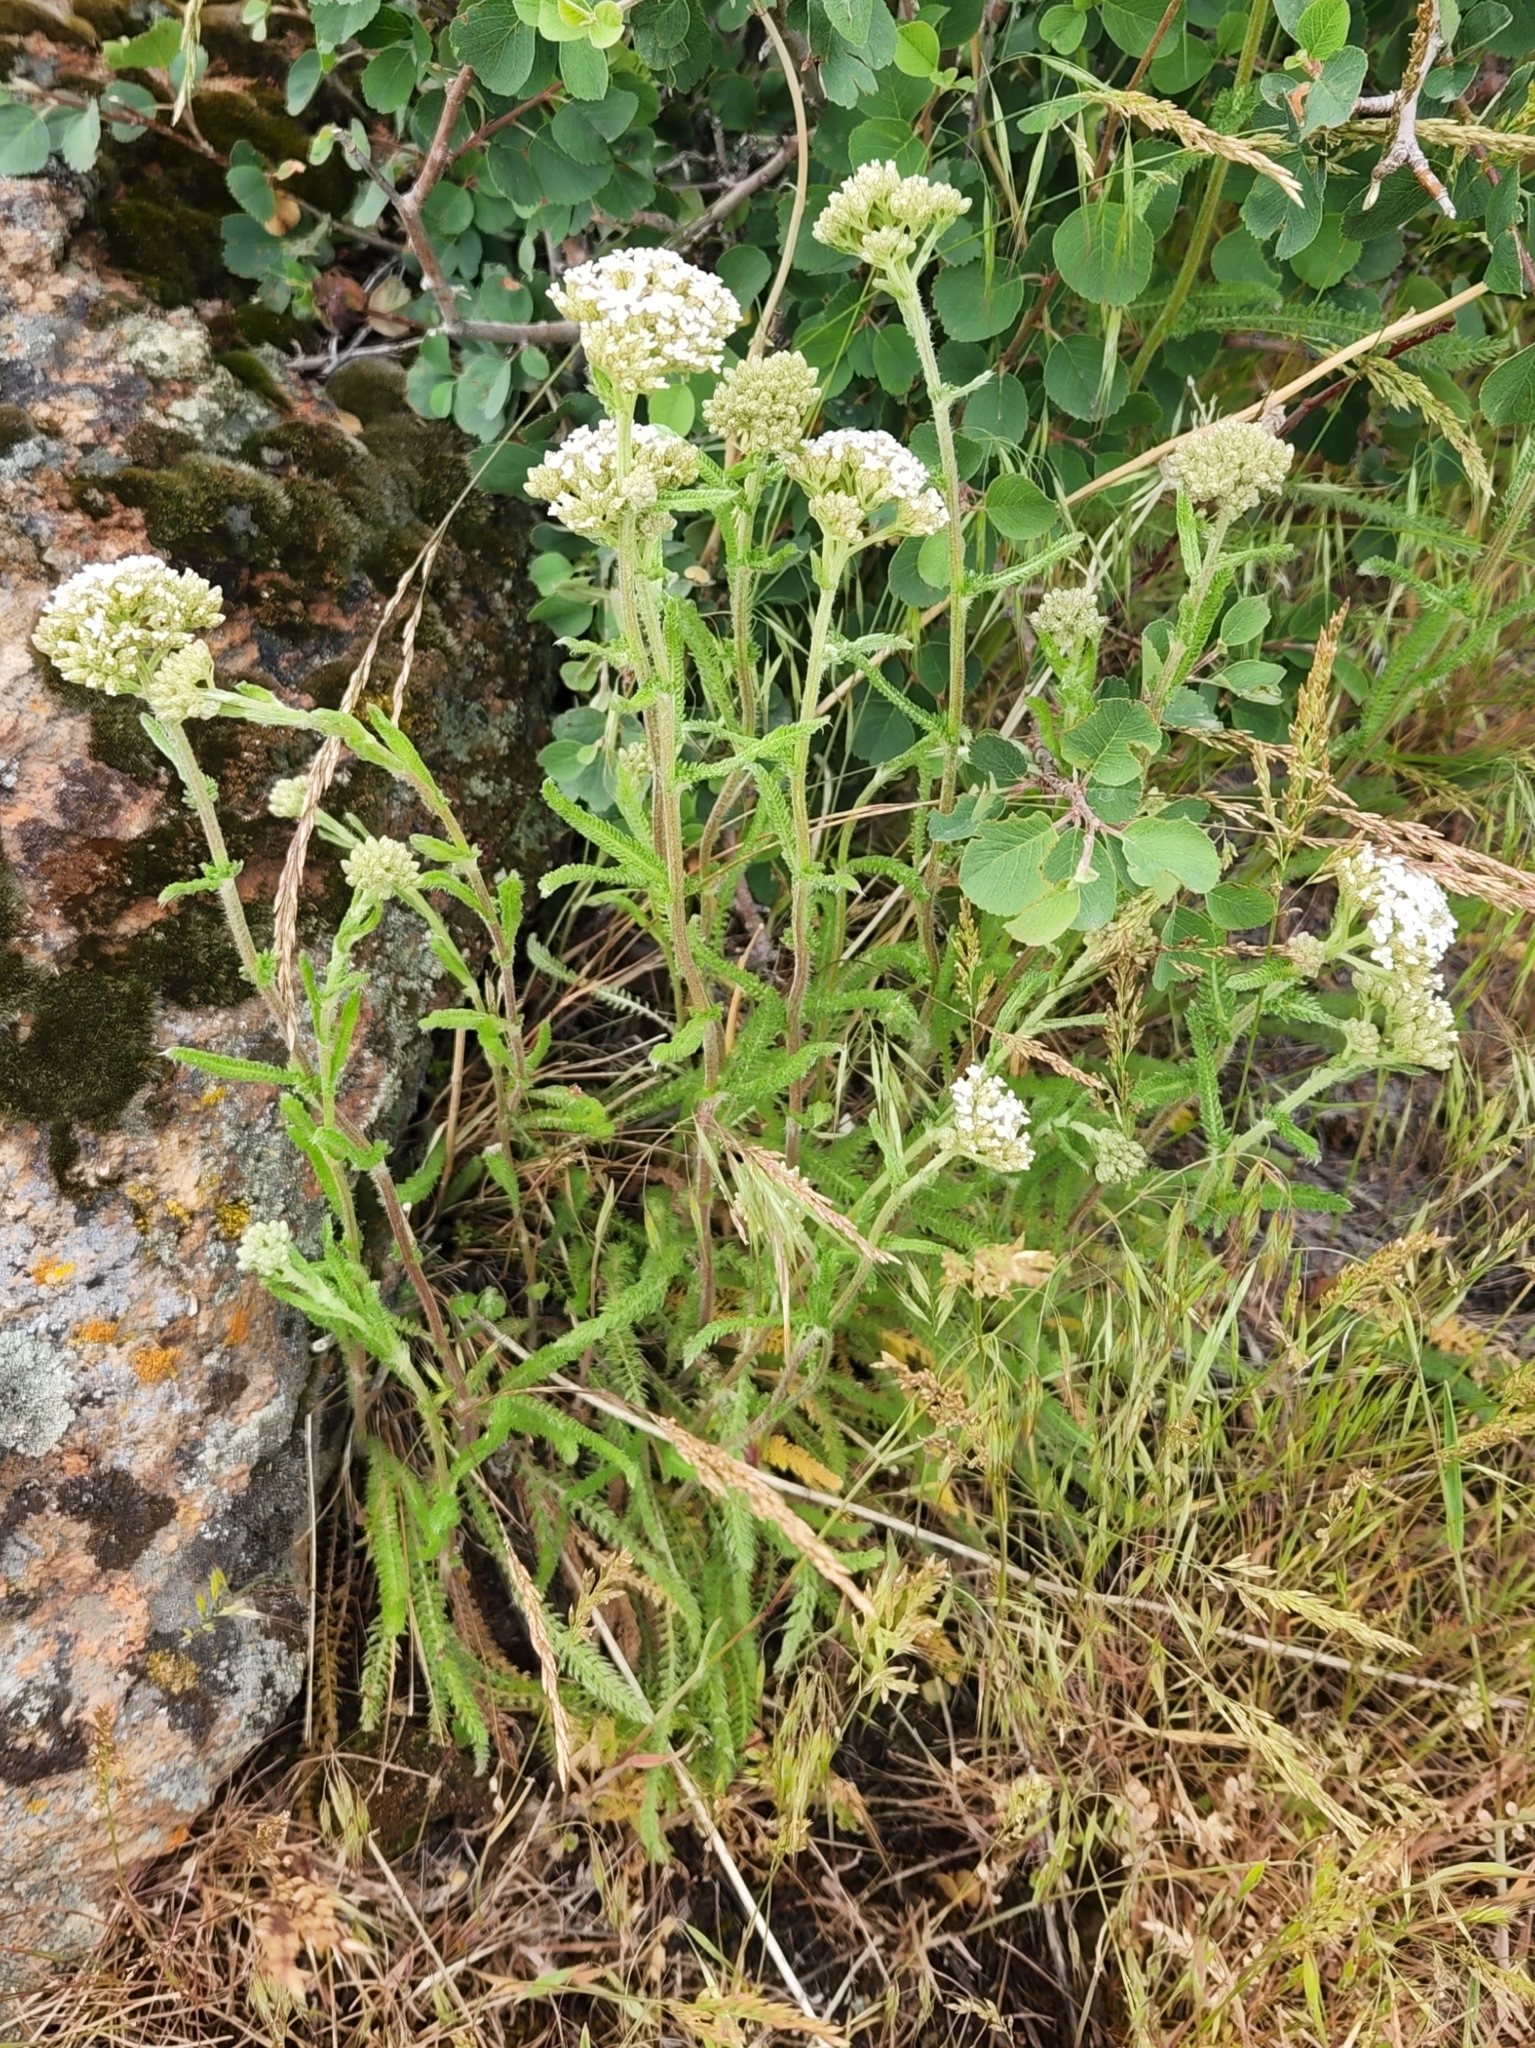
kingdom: Plantae
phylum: Tracheophyta
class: Magnoliopsida
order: Asterales
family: Asteraceae
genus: Achillea
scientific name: Achillea millefolium
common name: Yarrow
